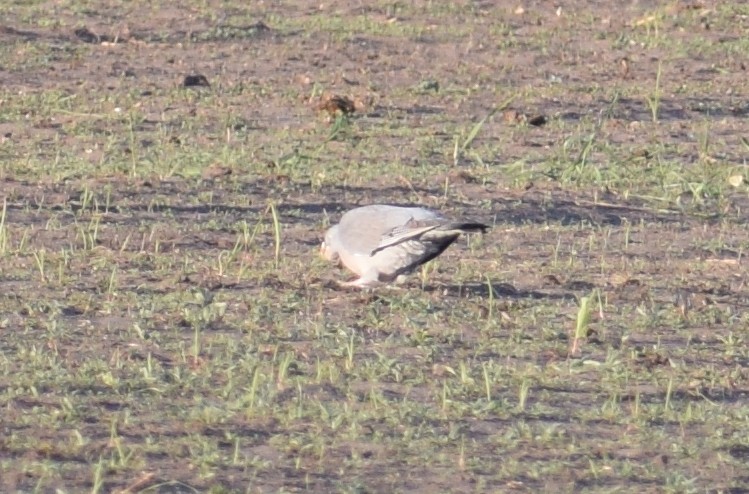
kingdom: Animalia
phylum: Chordata
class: Aves
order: Columbiformes
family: Columbidae
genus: Columba
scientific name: Columba palumbus
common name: Common wood pigeon
